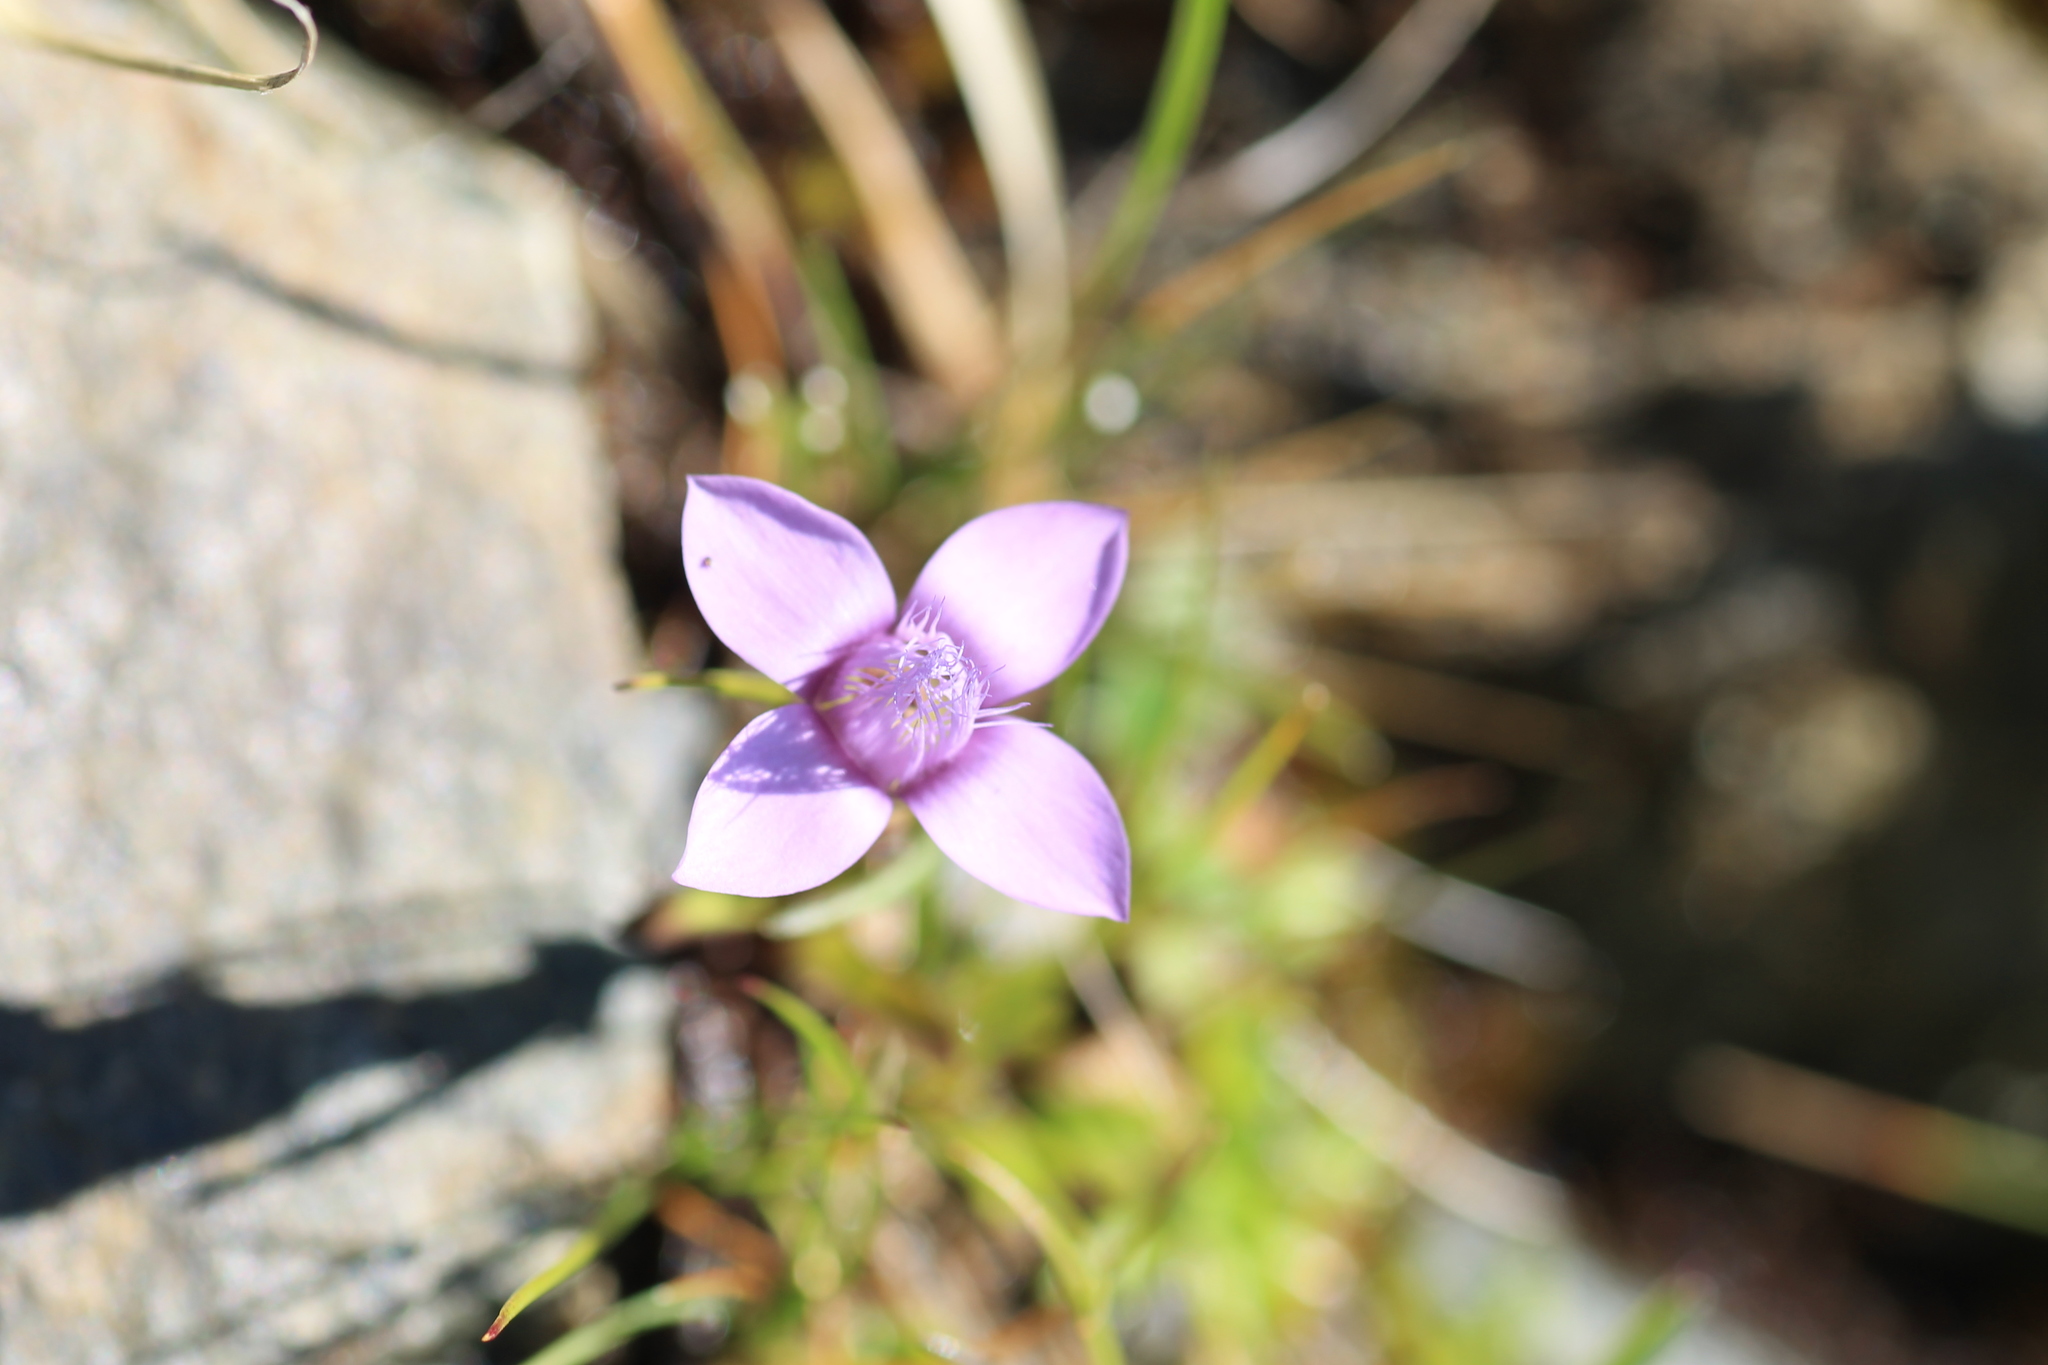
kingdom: Plantae
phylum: Tracheophyta
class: Magnoliopsida
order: Gentianales
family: Gentianaceae
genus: Gentianella
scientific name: Gentianella campestris
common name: Field gentian
